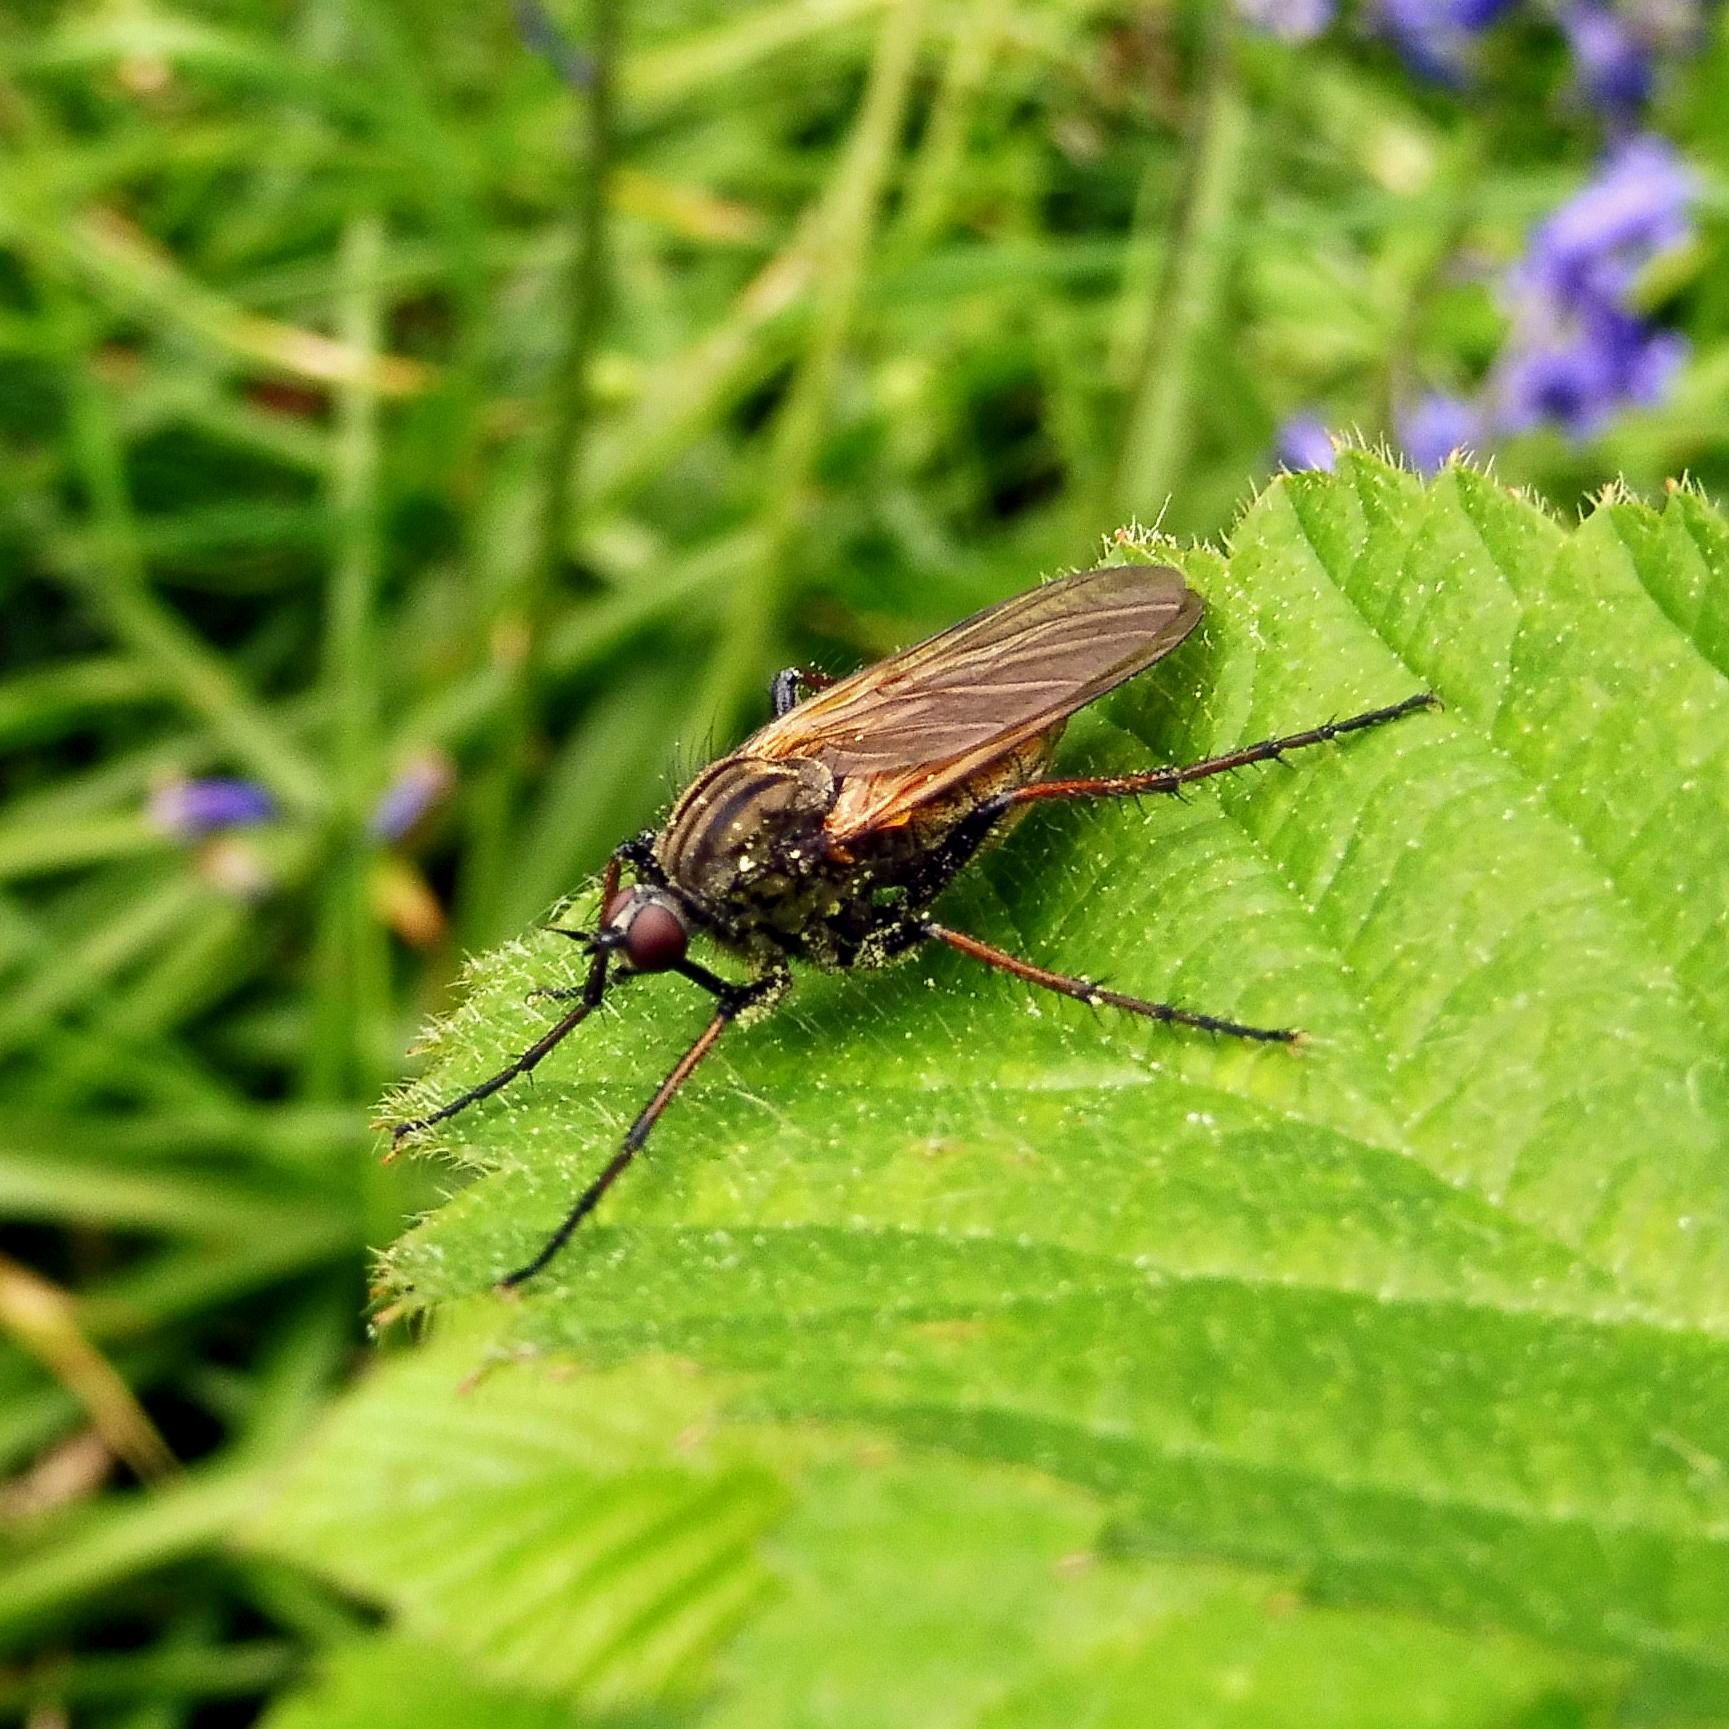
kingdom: Animalia
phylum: Arthropoda
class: Insecta
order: Diptera
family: Empididae
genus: Empis
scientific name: Empis tessellata
